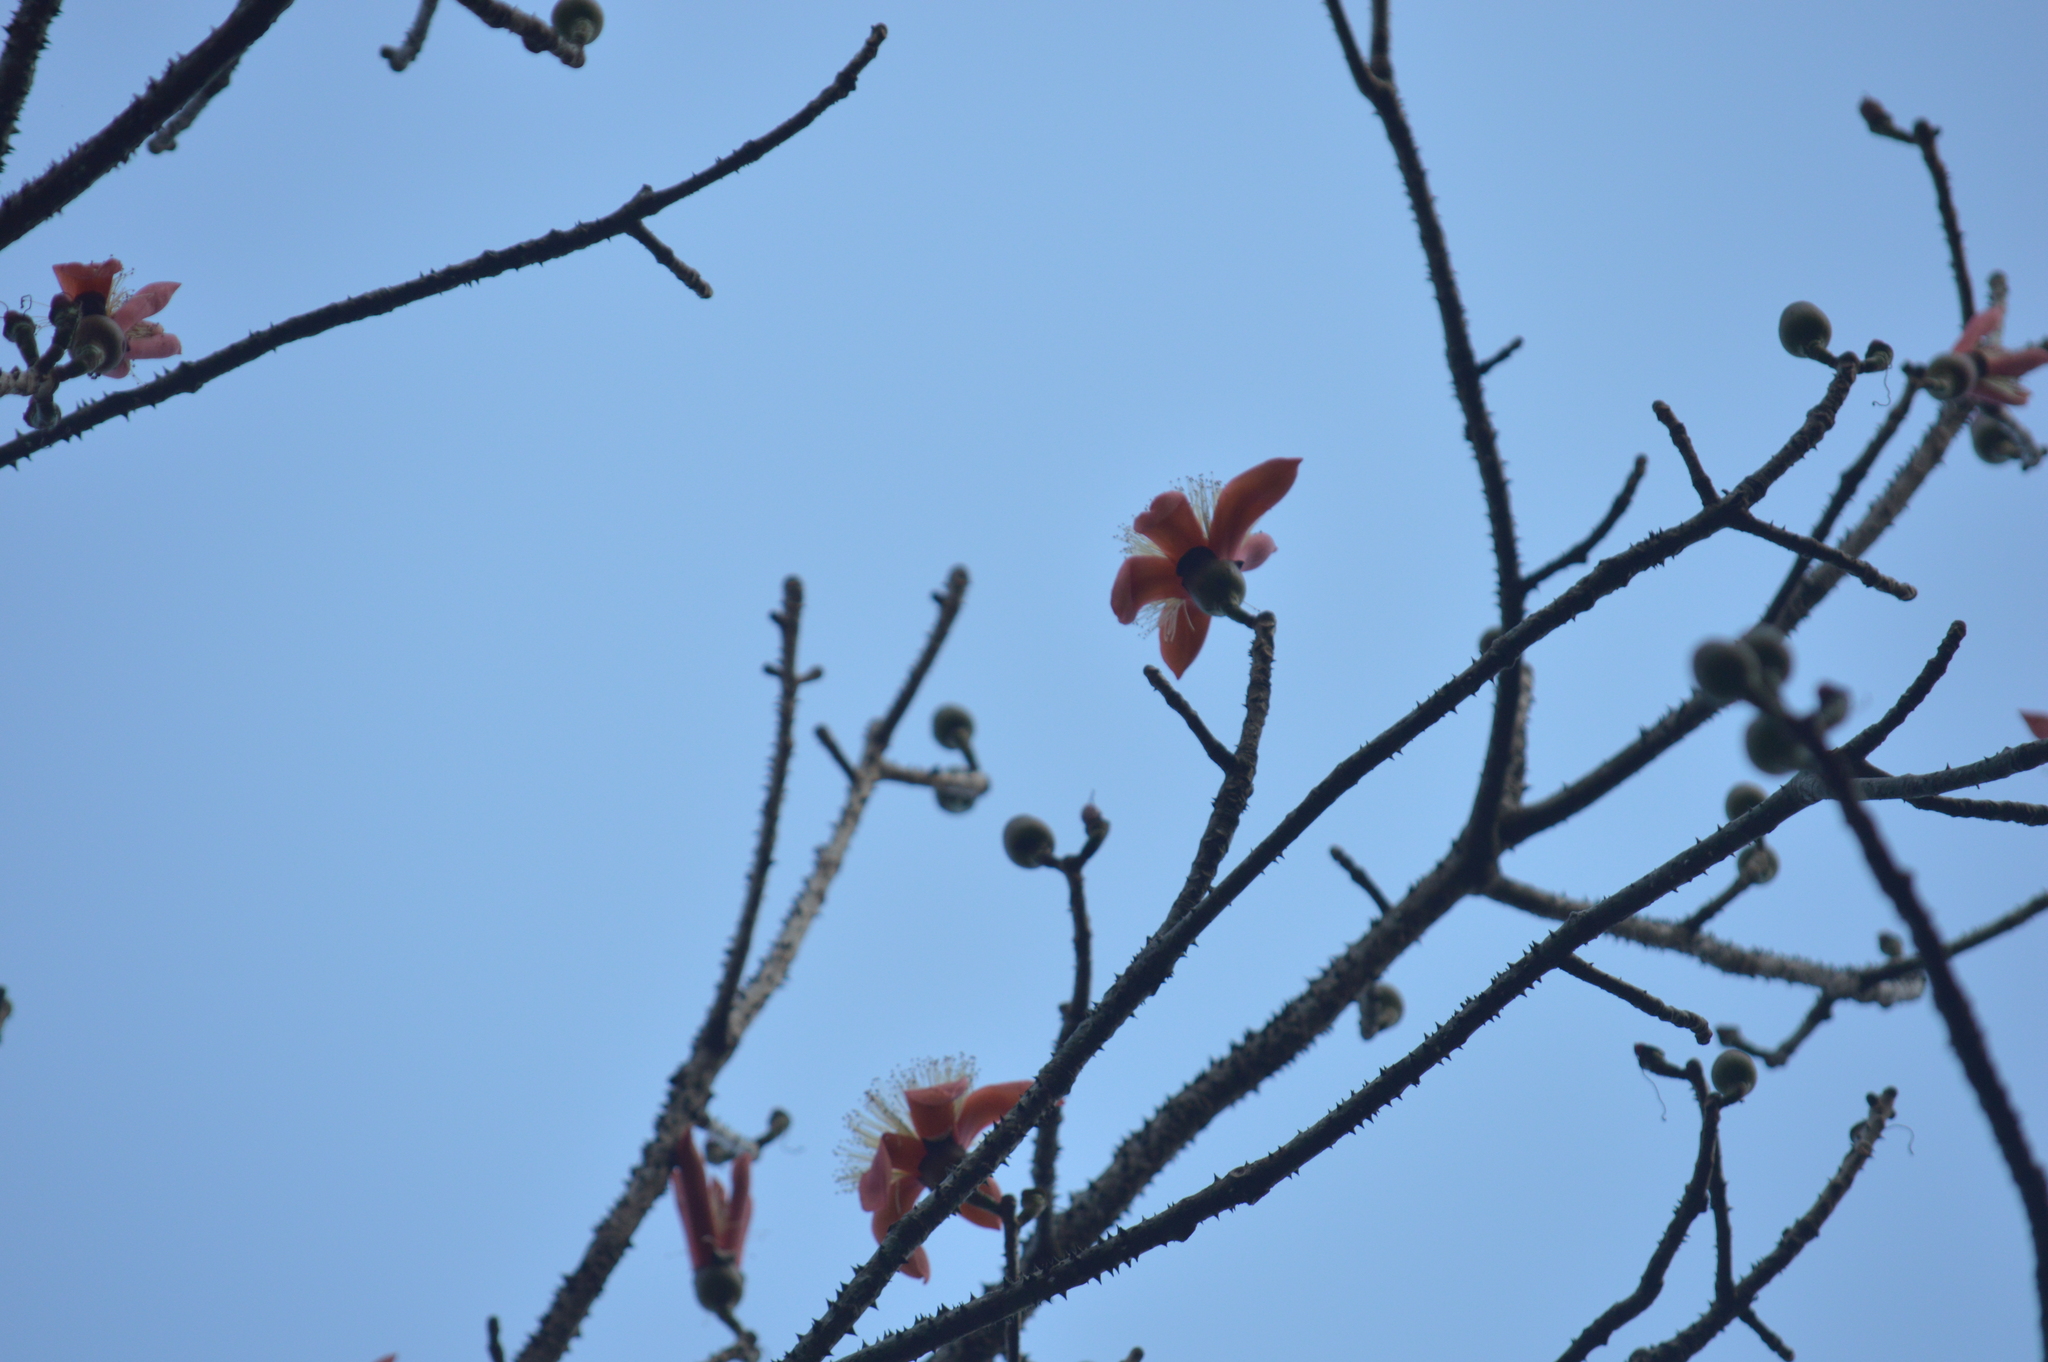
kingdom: Plantae
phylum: Tracheophyta
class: Magnoliopsida
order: Malvales
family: Malvaceae
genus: Bombax
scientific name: Bombax insigne
